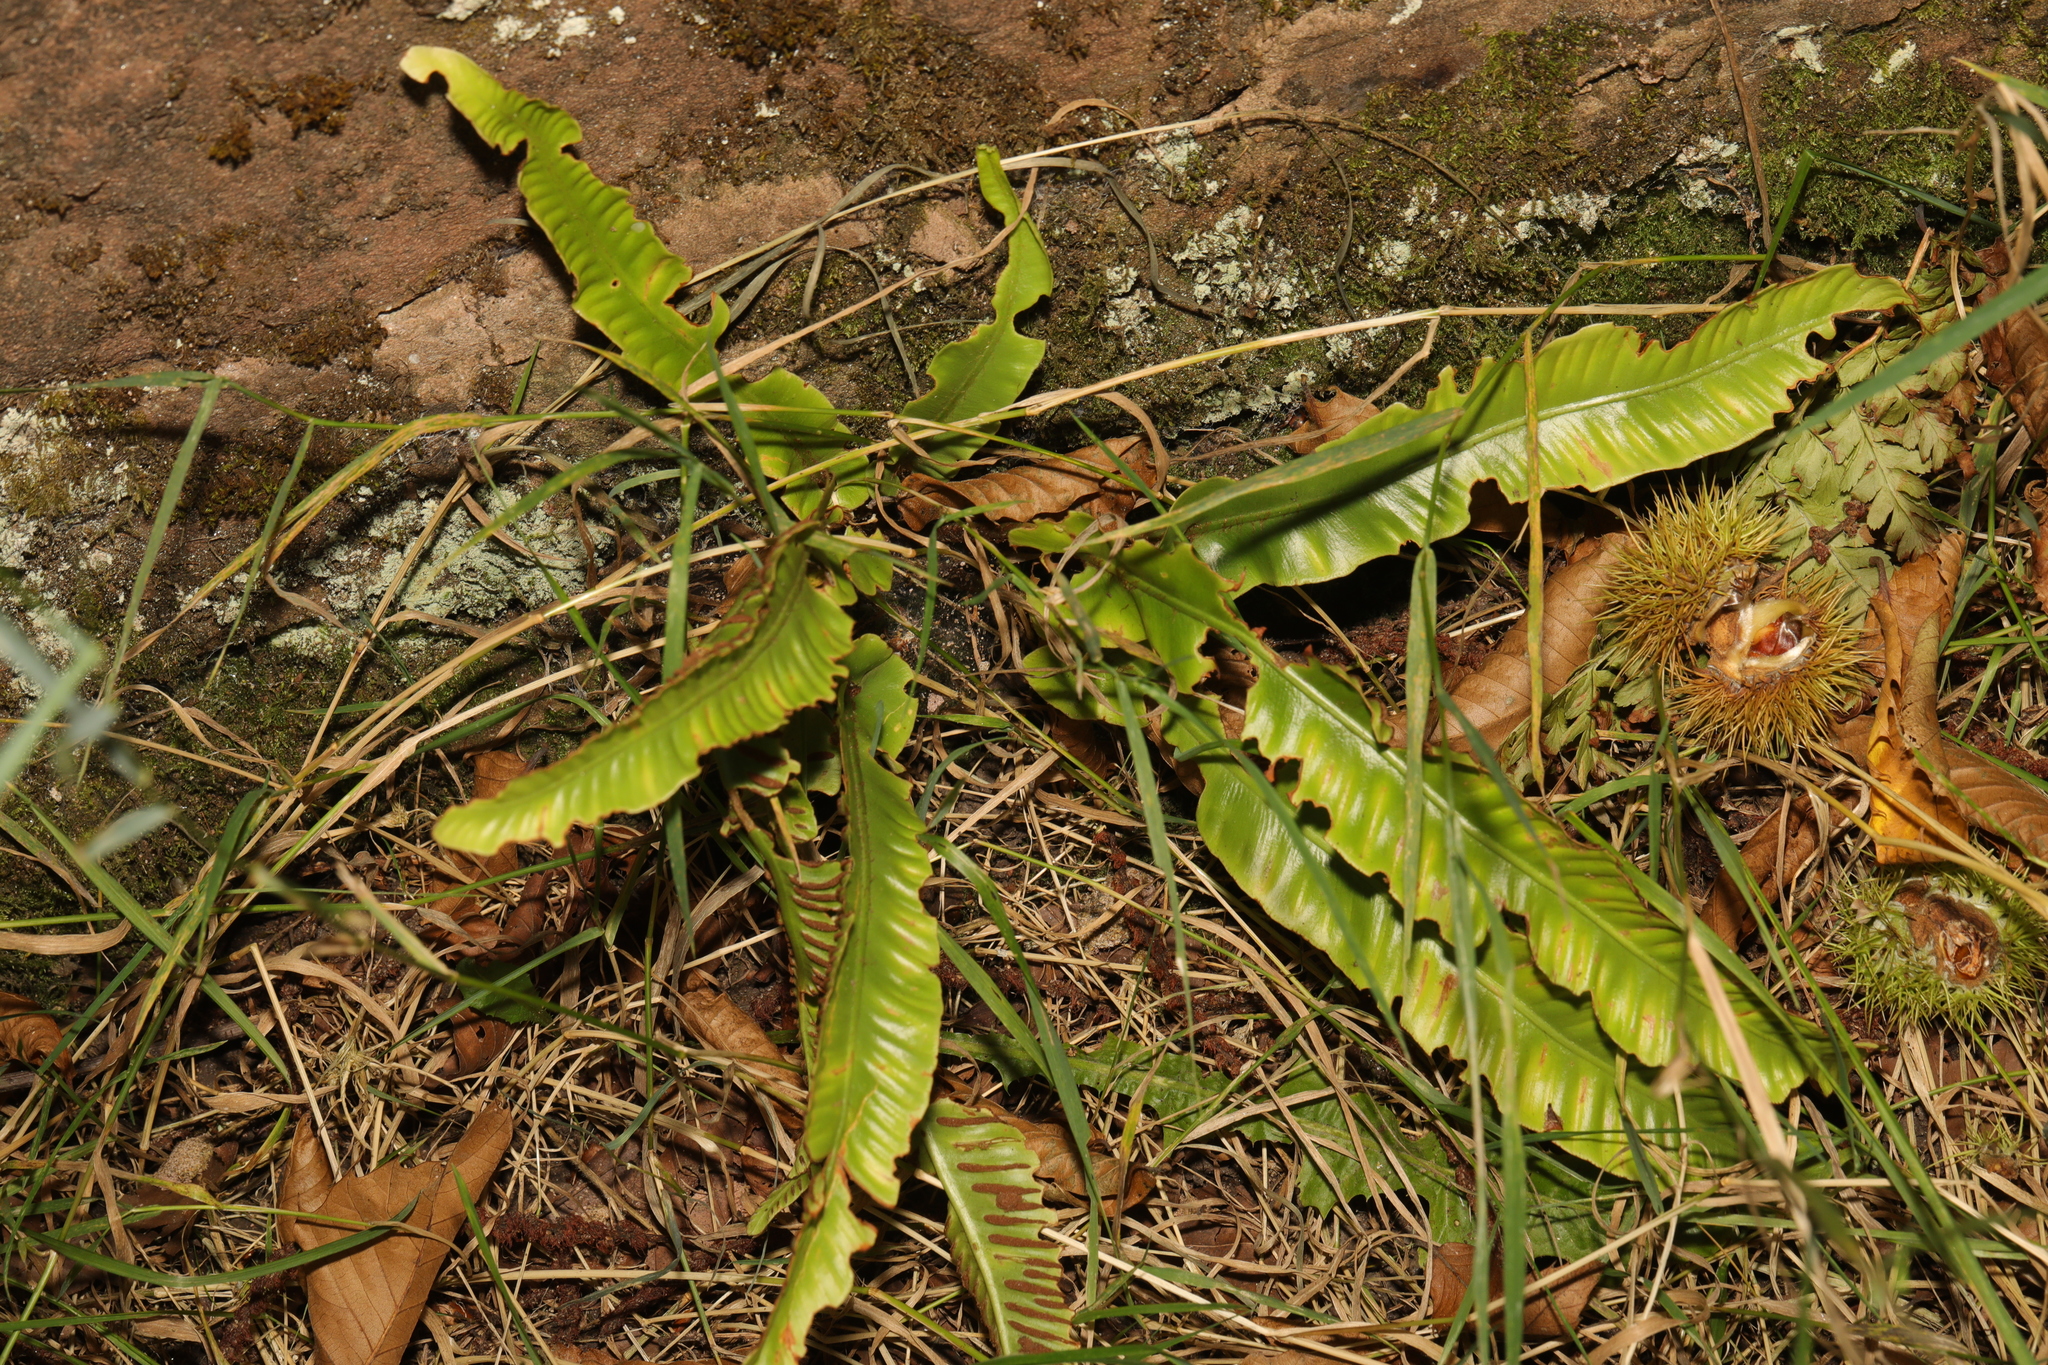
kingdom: Plantae
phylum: Tracheophyta
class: Polypodiopsida
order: Polypodiales
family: Aspleniaceae
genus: Asplenium
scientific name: Asplenium scolopendrium
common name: Hart's-tongue fern
